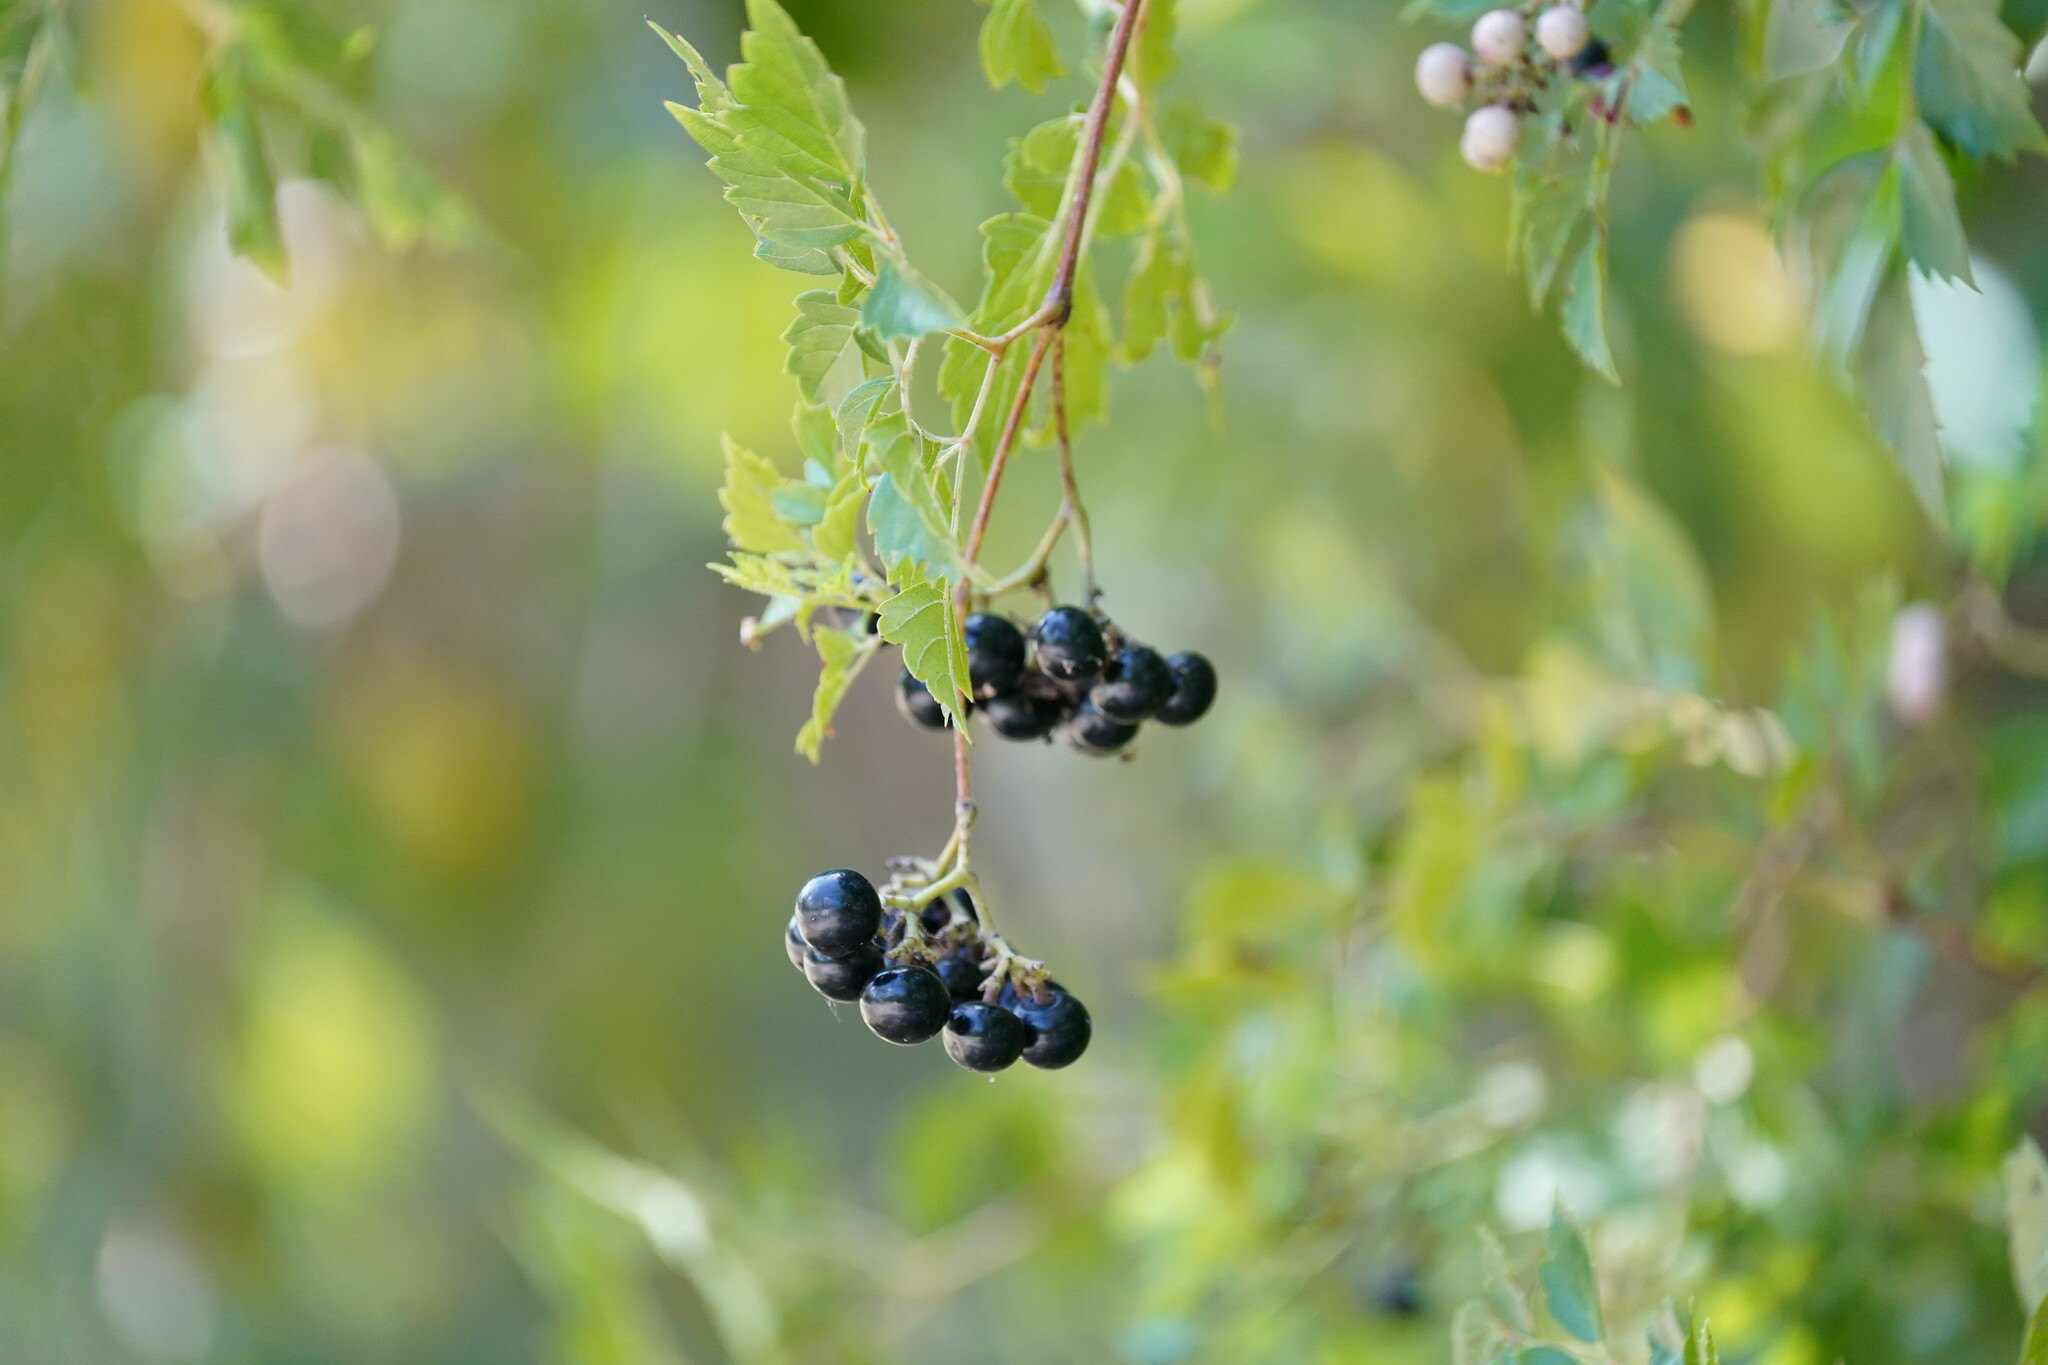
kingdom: Plantae
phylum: Tracheophyta
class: Magnoliopsida
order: Vitales
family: Vitaceae
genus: Nekemias
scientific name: Nekemias arborea
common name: Peppervine
